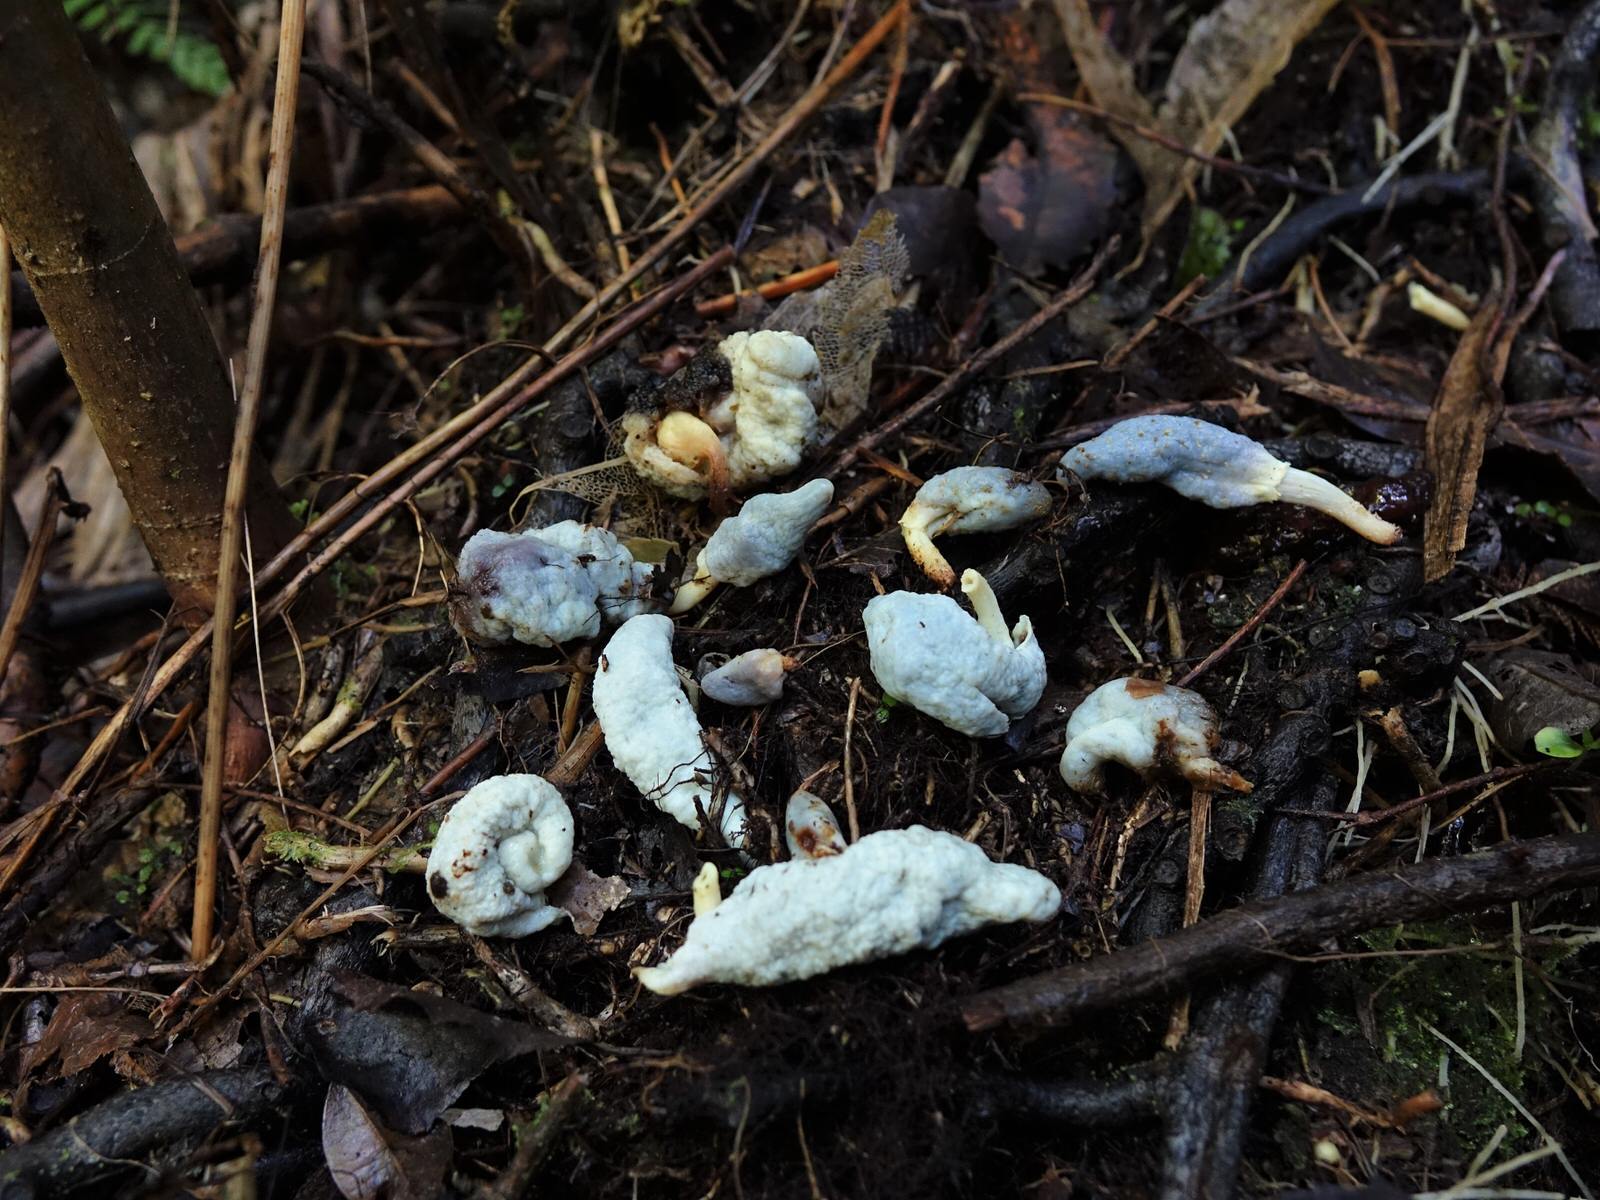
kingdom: Fungi
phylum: Basidiomycota
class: Agaricomycetes
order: Agaricales
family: Agaricaceae
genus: Clavogaster
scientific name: Clavogaster virescens
